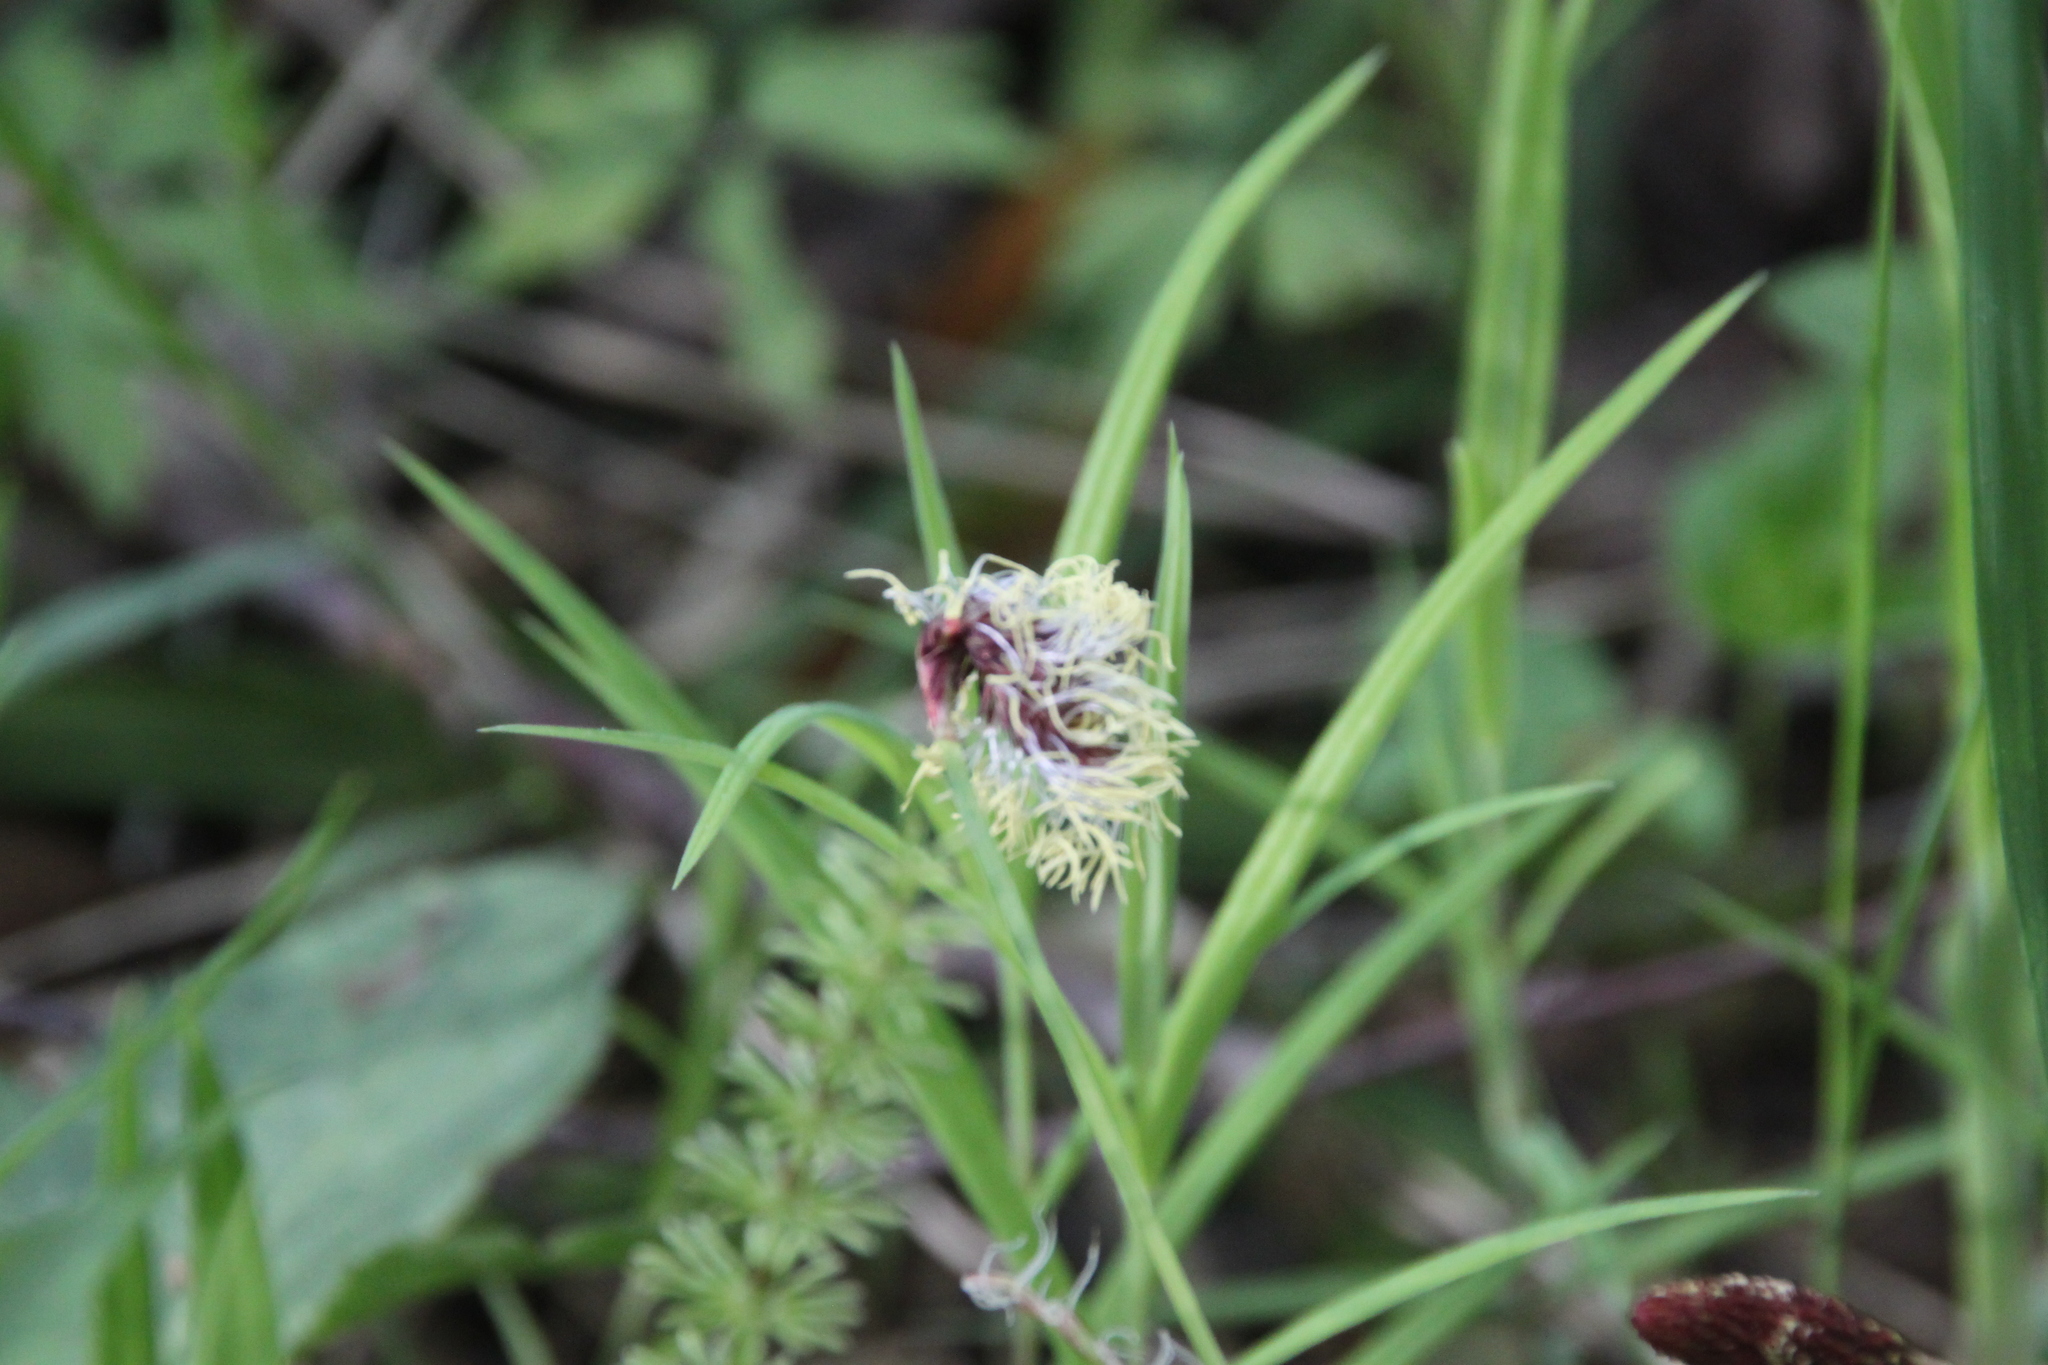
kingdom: Plantae
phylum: Tracheophyta
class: Liliopsida
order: Poales
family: Cyperaceae
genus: Carex
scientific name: Carex pilosa
